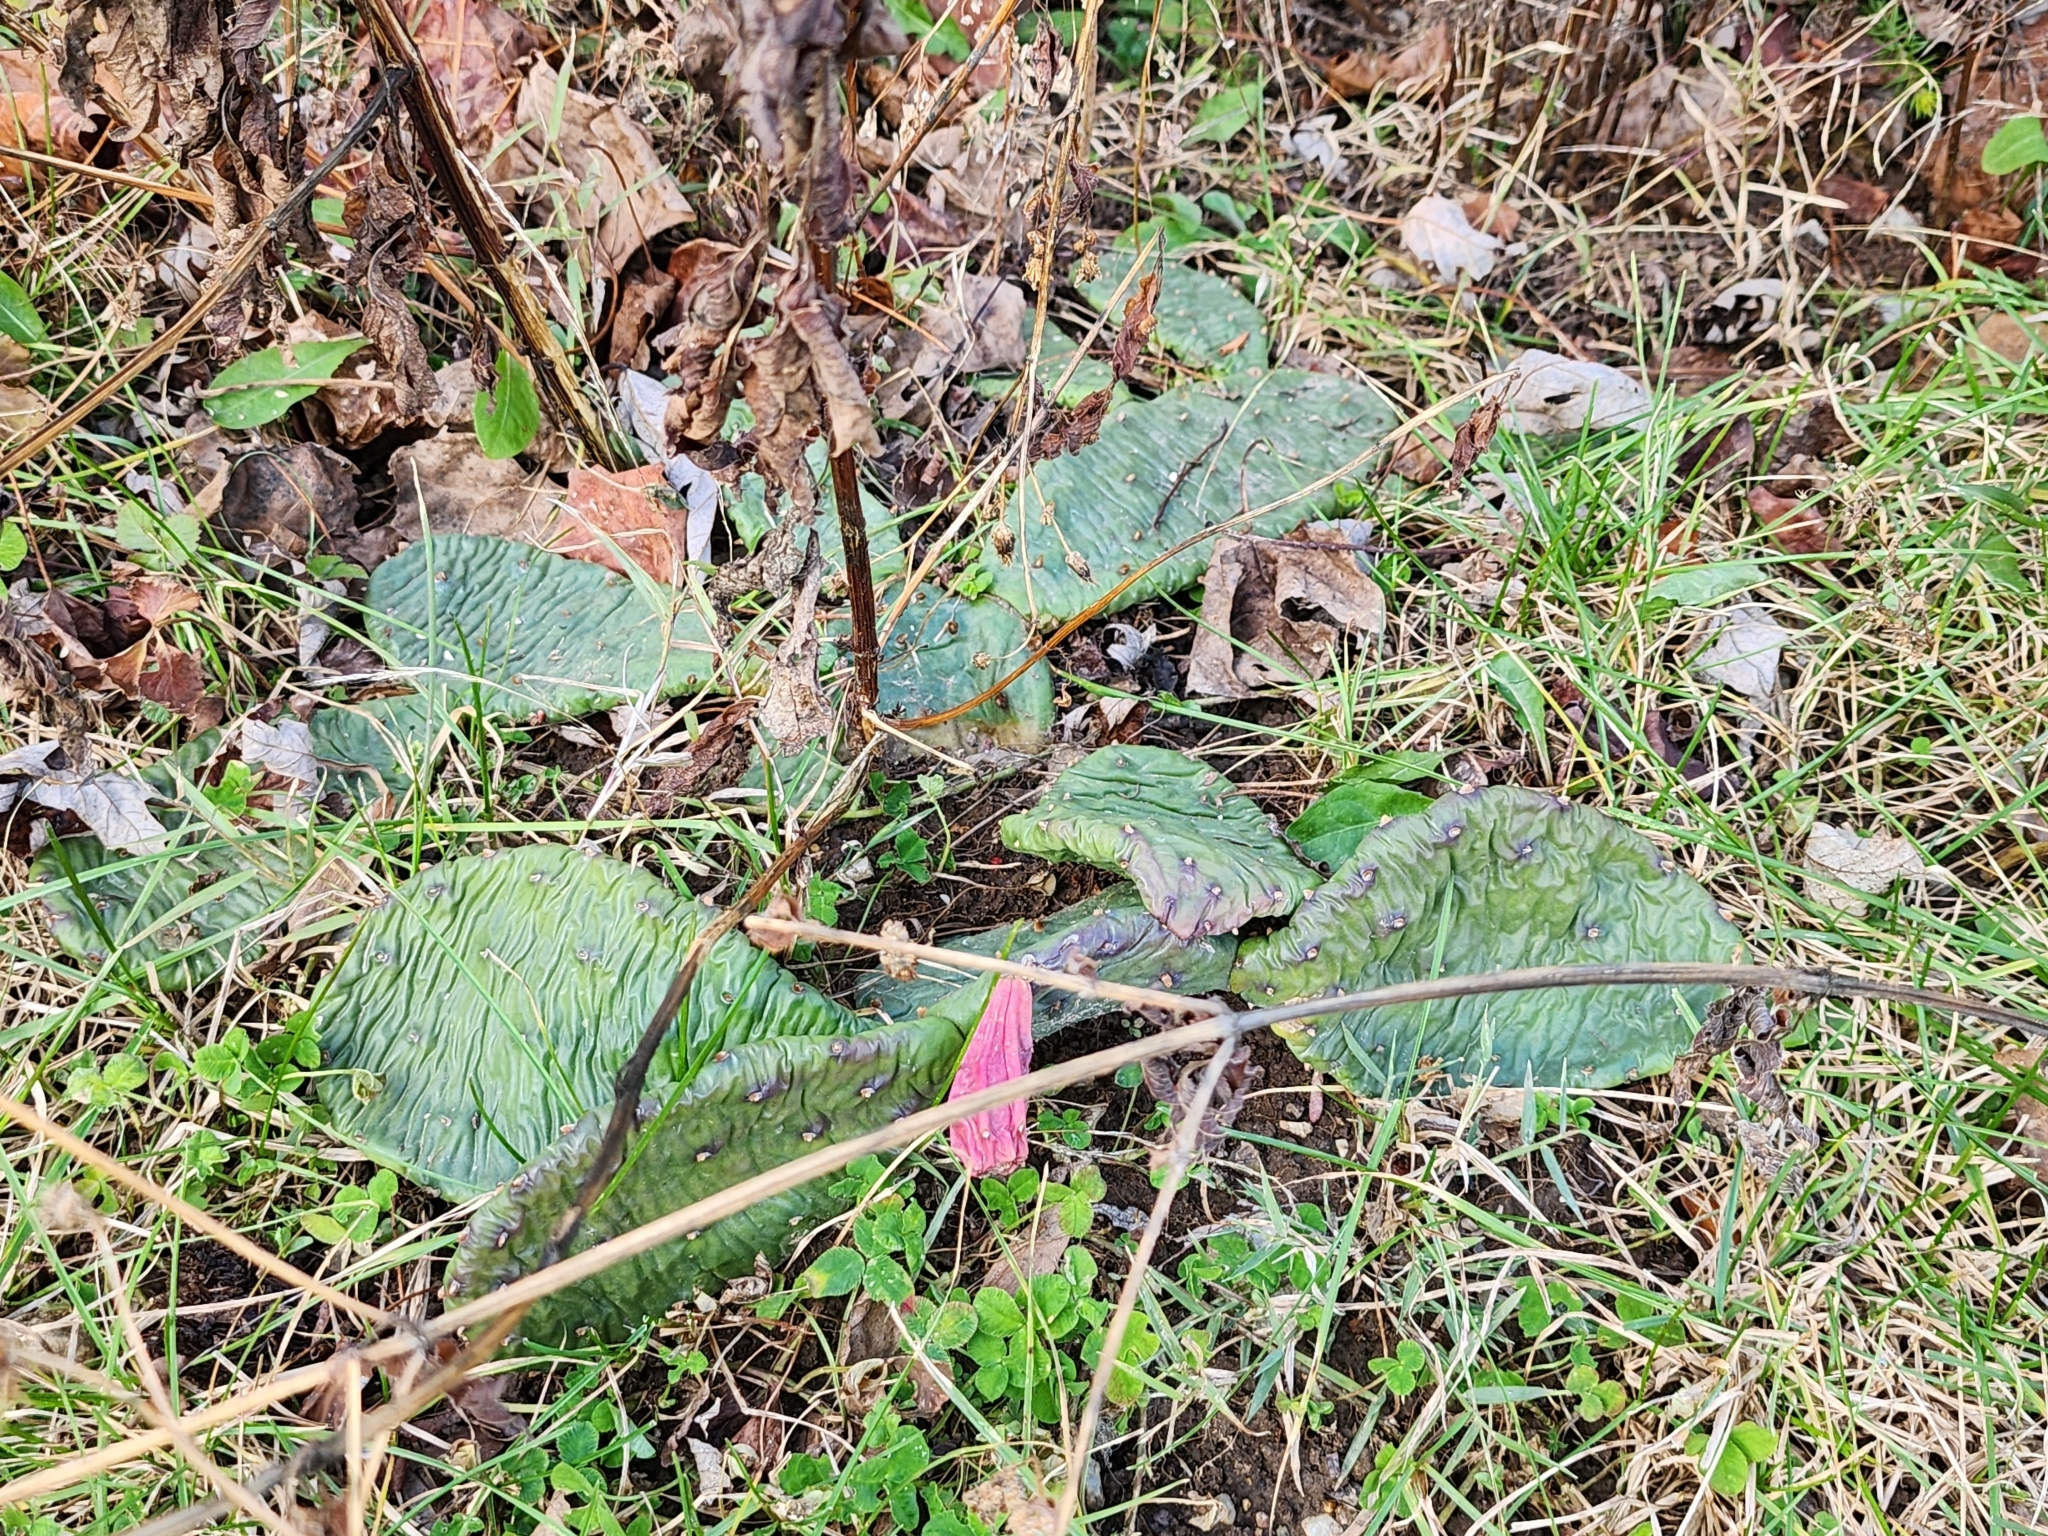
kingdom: Plantae
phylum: Tracheophyta
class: Magnoliopsida
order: Caryophyllales
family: Cactaceae
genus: Opuntia
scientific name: Opuntia humifusa
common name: Eastern prickly-pear
